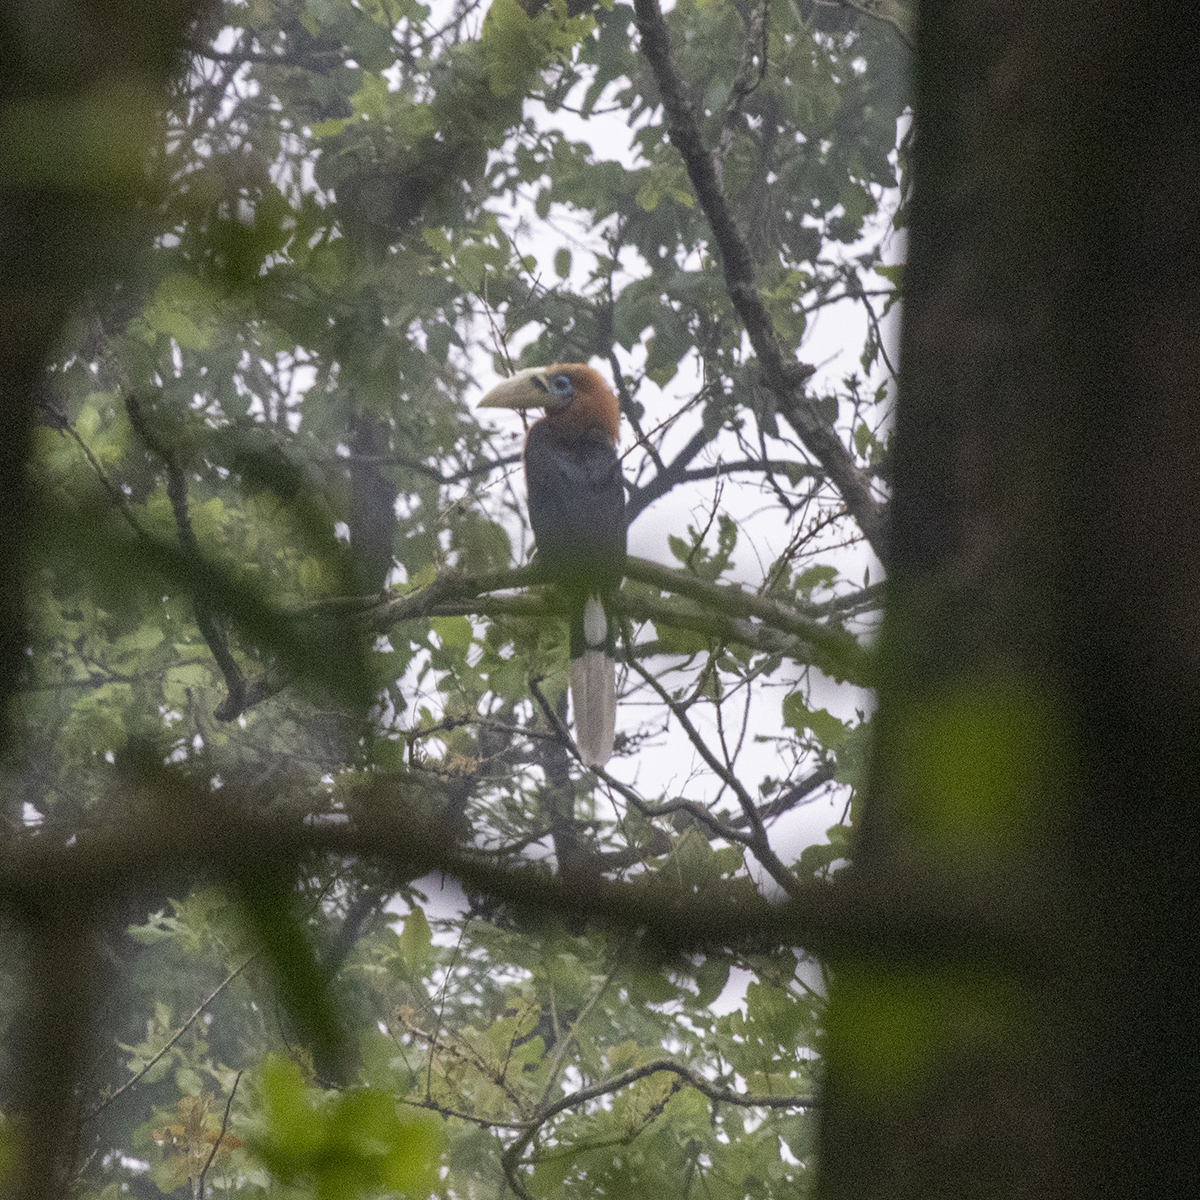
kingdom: Animalia
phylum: Chordata
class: Aves
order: Bucerotiformes
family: Bucerotidae
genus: Aceros
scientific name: Aceros nipalensis
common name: Rufous-necked hornbill
